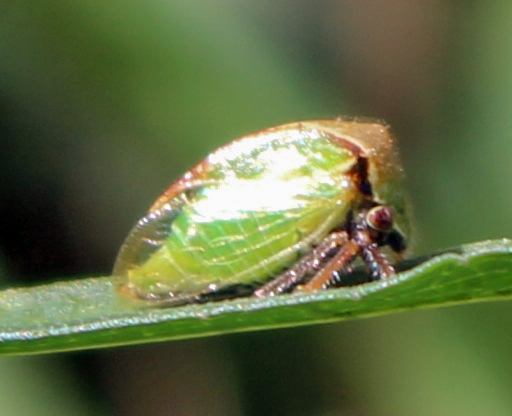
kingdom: Animalia
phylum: Arthropoda
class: Insecta
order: Hemiptera
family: Membracidae
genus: Stictocephala
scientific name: Stictocephala basalis
